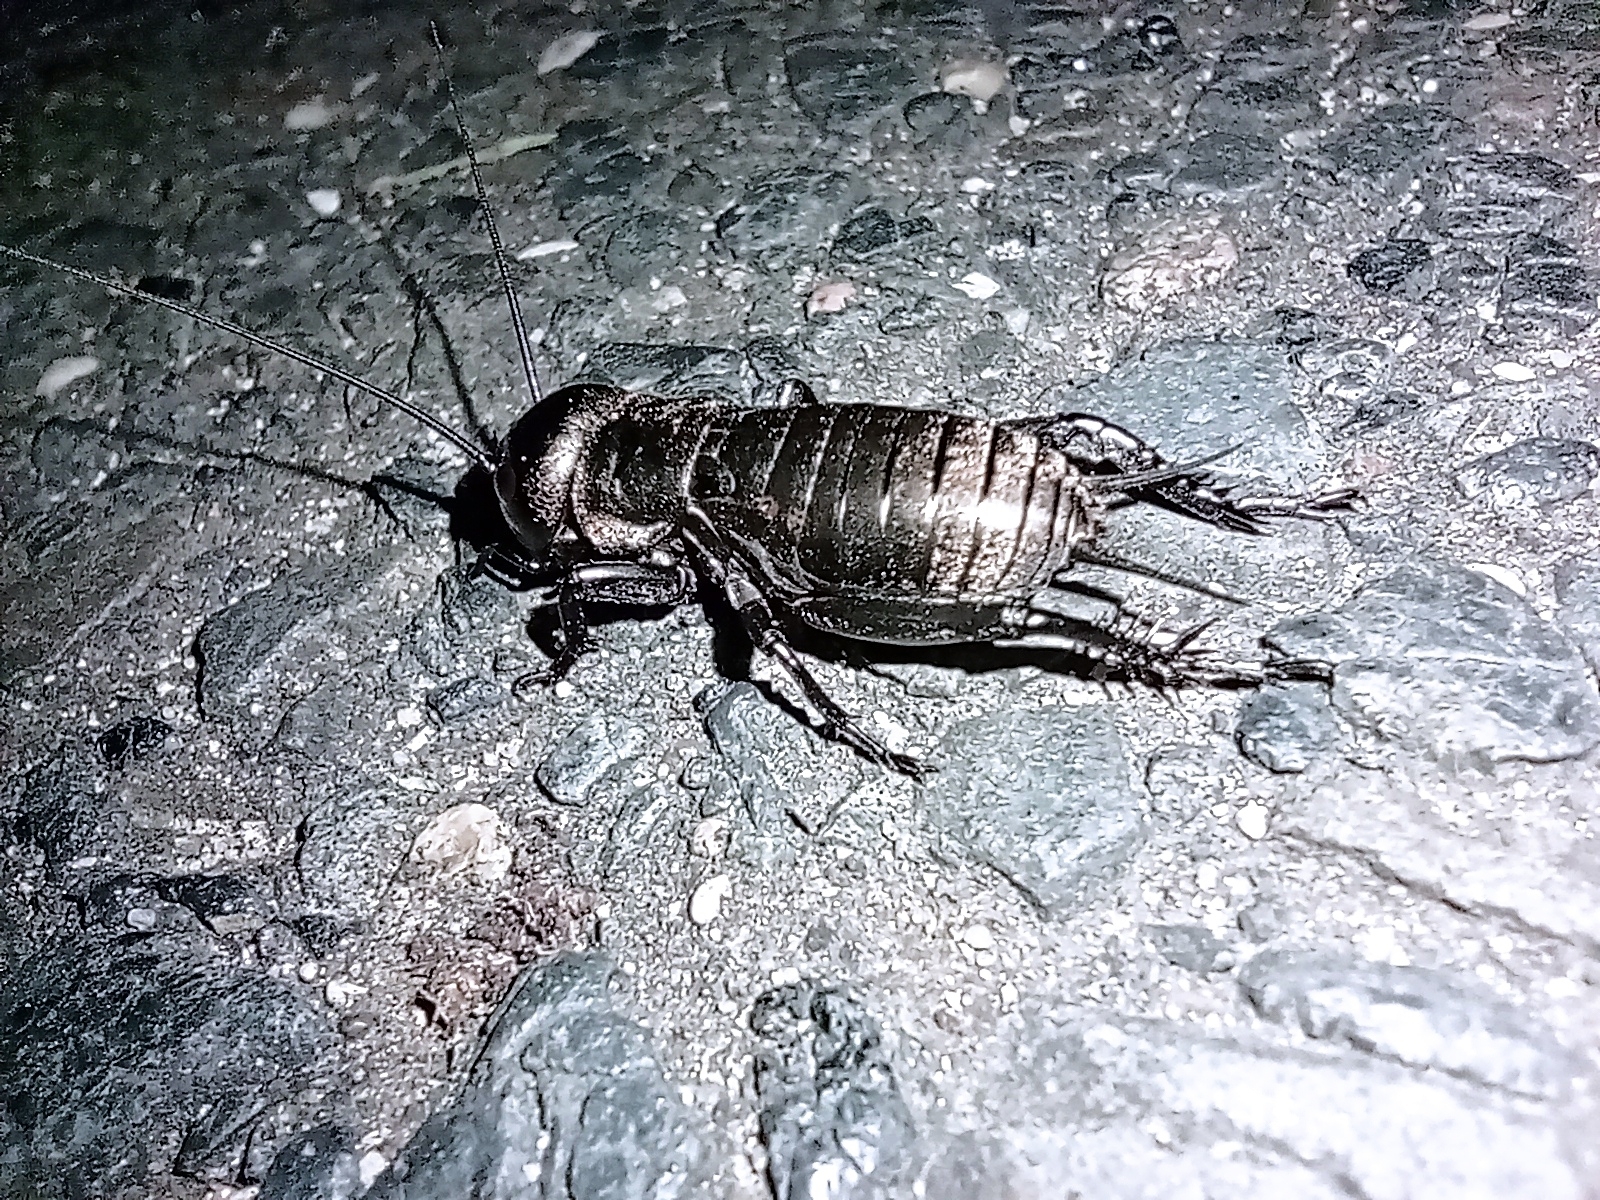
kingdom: Animalia
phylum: Arthropoda
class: Insecta
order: Orthoptera
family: Gryllidae
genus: Gryllus
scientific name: Gryllus campestris
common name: Field cricket
